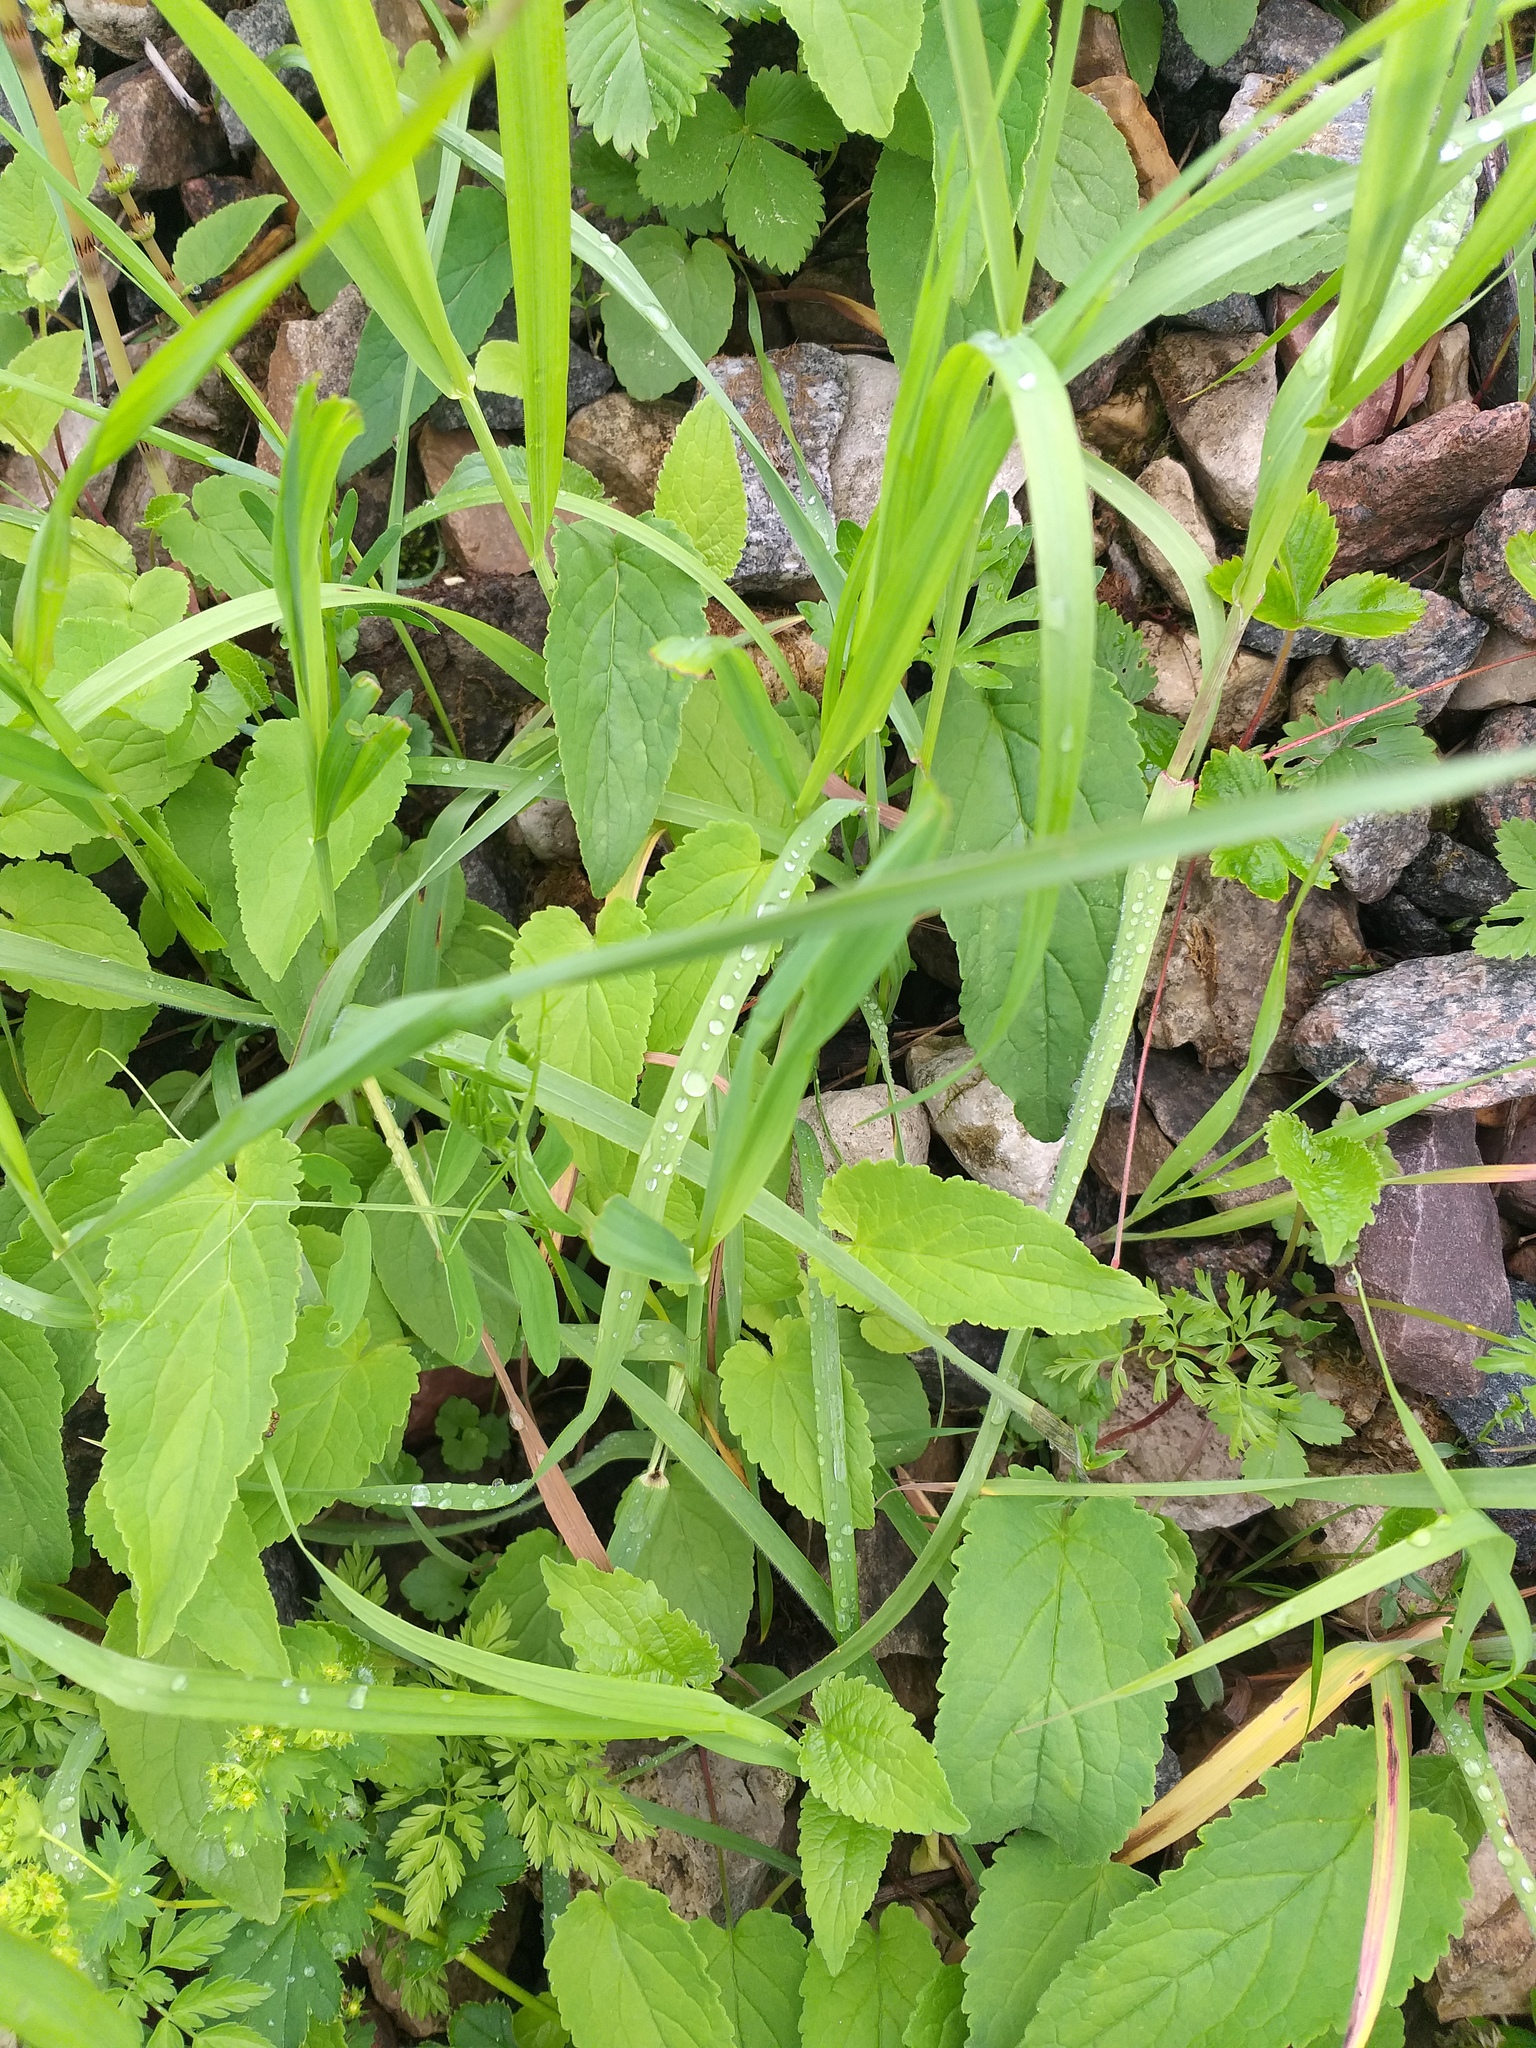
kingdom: Plantae
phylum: Tracheophyta
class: Magnoliopsida
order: Asterales
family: Campanulaceae
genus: Campanula
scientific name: Campanula rapunculoides
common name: Creeping bellflower
